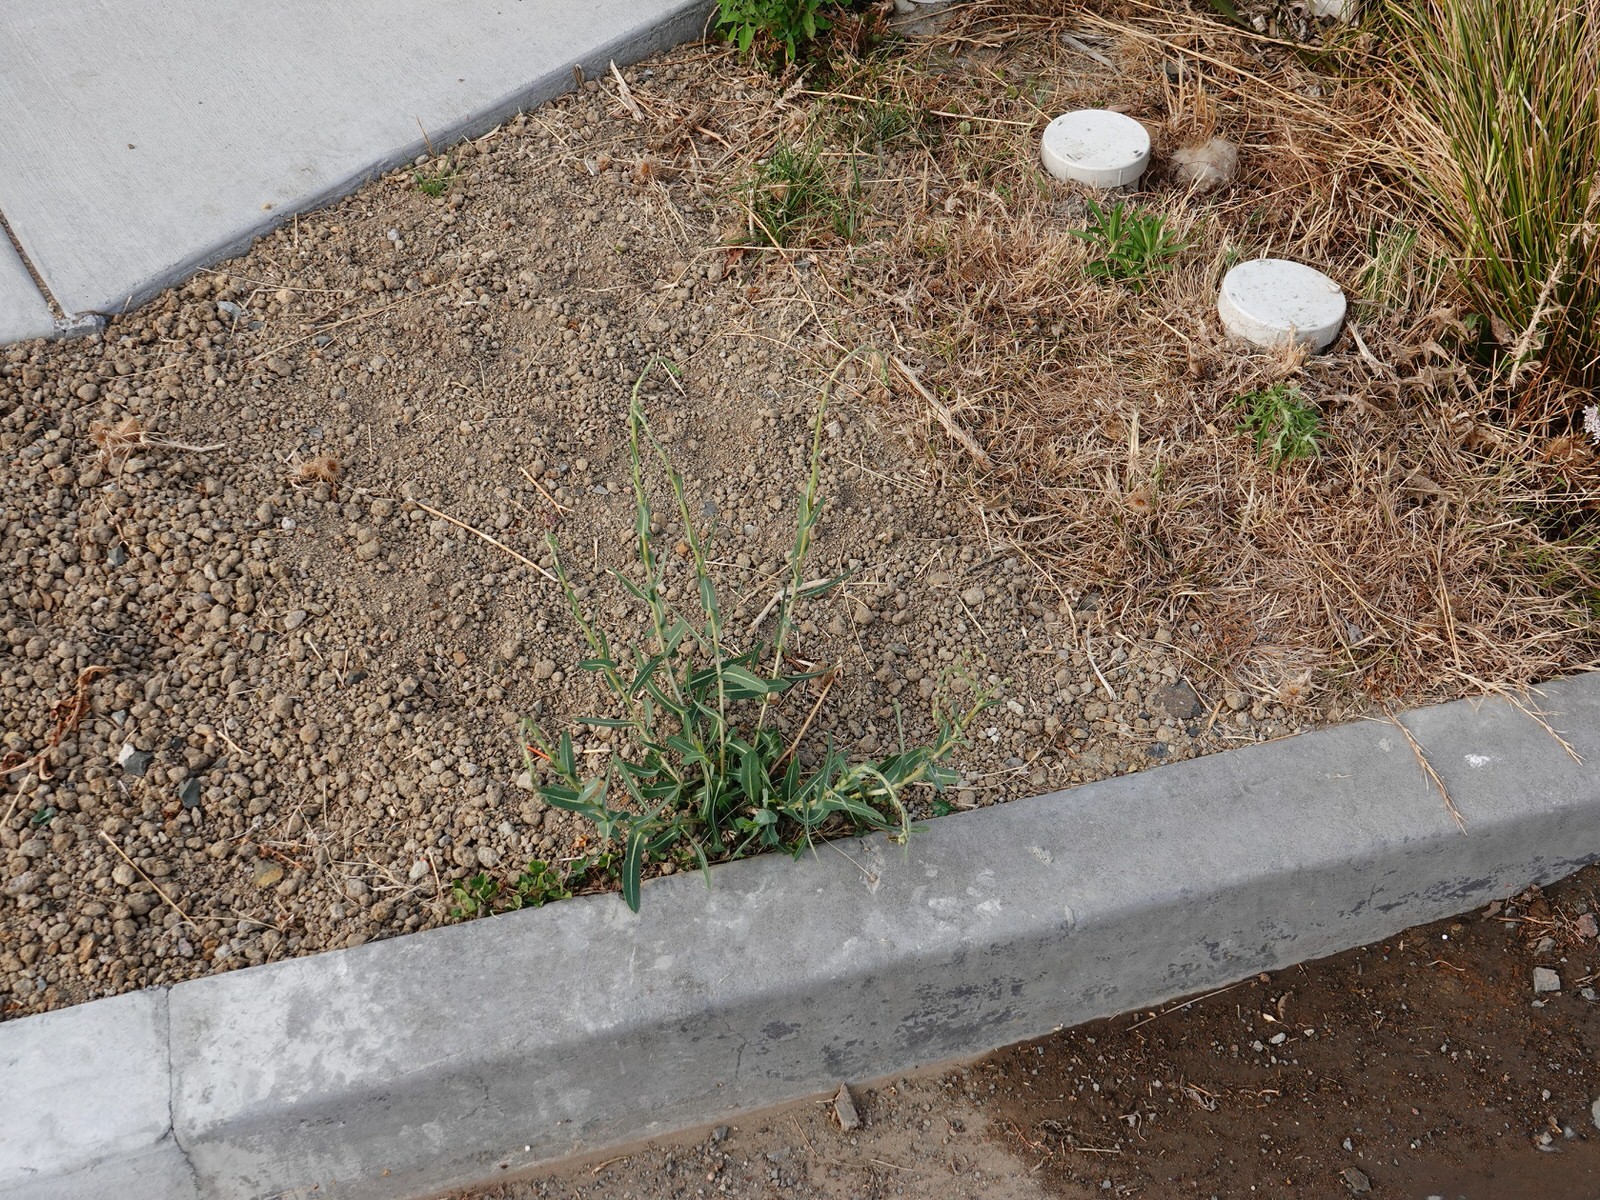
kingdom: Plantae
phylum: Tracheophyta
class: Magnoliopsida
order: Asterales
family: Asteraceae
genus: Lactuca
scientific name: Lactuca serriola
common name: Prickly lettuce
